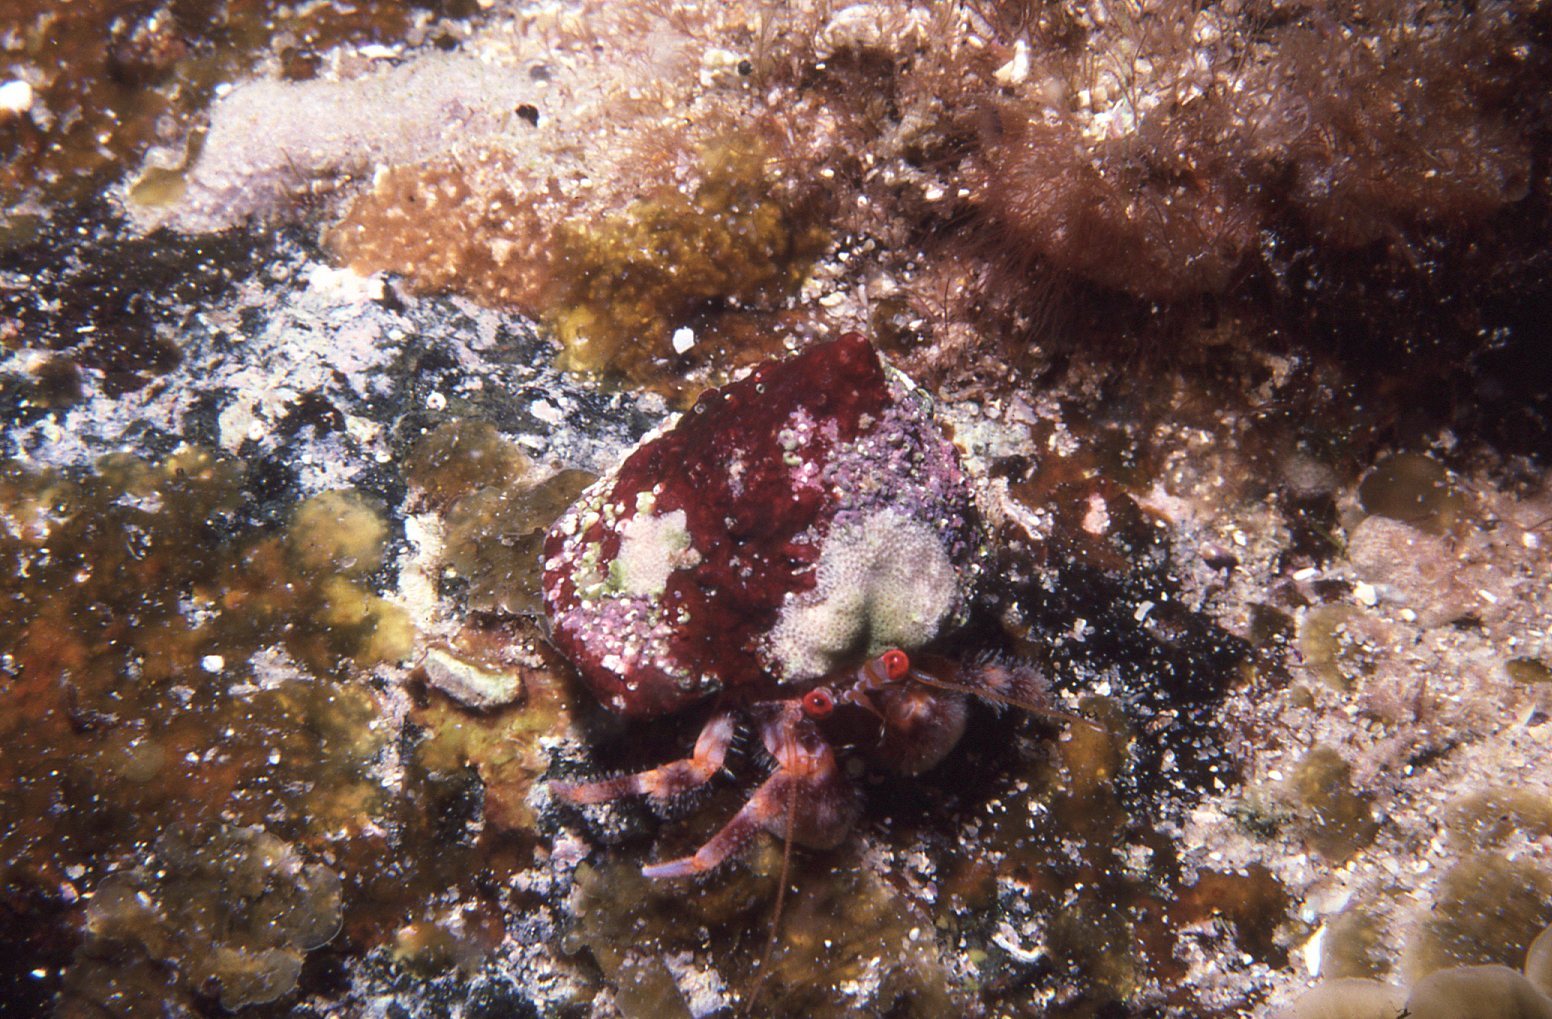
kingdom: Animalia
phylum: Arthropoda
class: Malacostraca
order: Decapoda
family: Paguridae
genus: Pagurus
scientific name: Pagurus sinuatus
